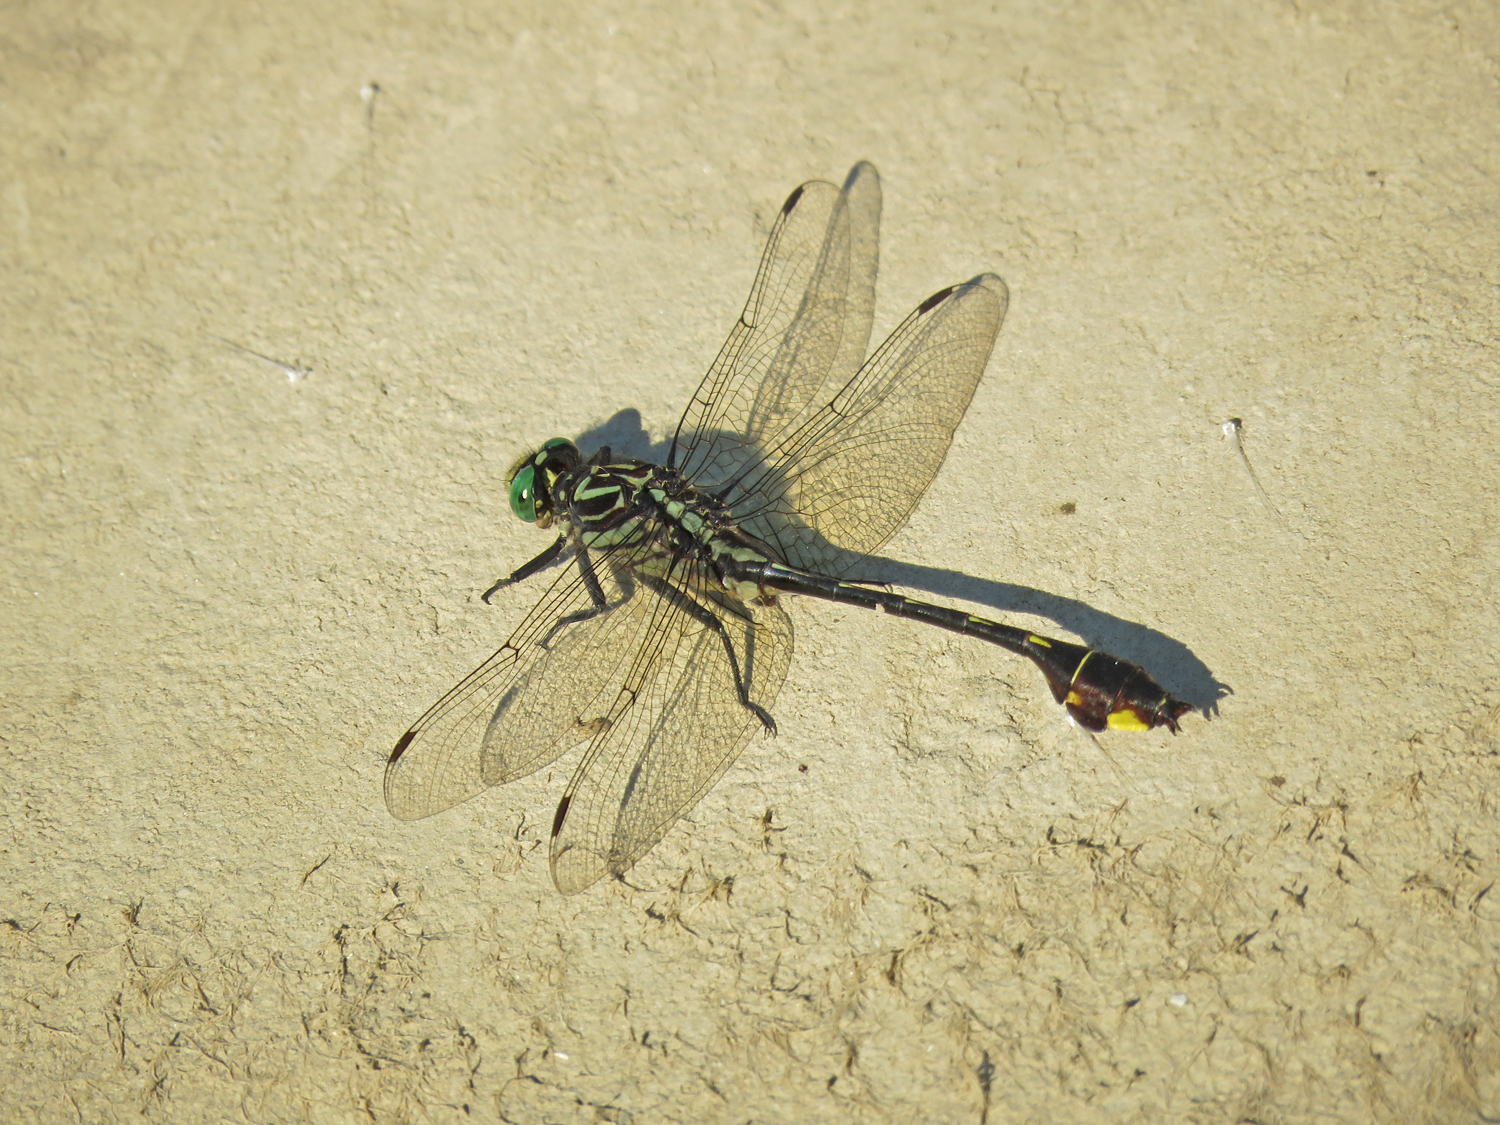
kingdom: Animalia
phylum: Arthropoda
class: Insecta
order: Odonata
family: Gomphidae
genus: Gomphurus
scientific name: Gomphurus vastus
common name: Cobra clubtail
